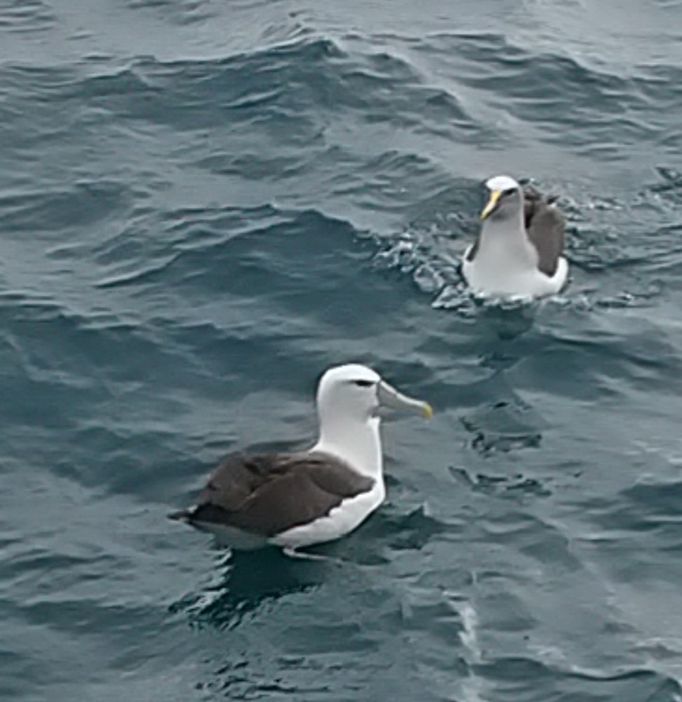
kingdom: Animalia
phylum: Chordata
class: Aves
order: Procellariiformes
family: Diomedeidae
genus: Thalassarche
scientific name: Thalassarche bulleri
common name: Buller's albatross
